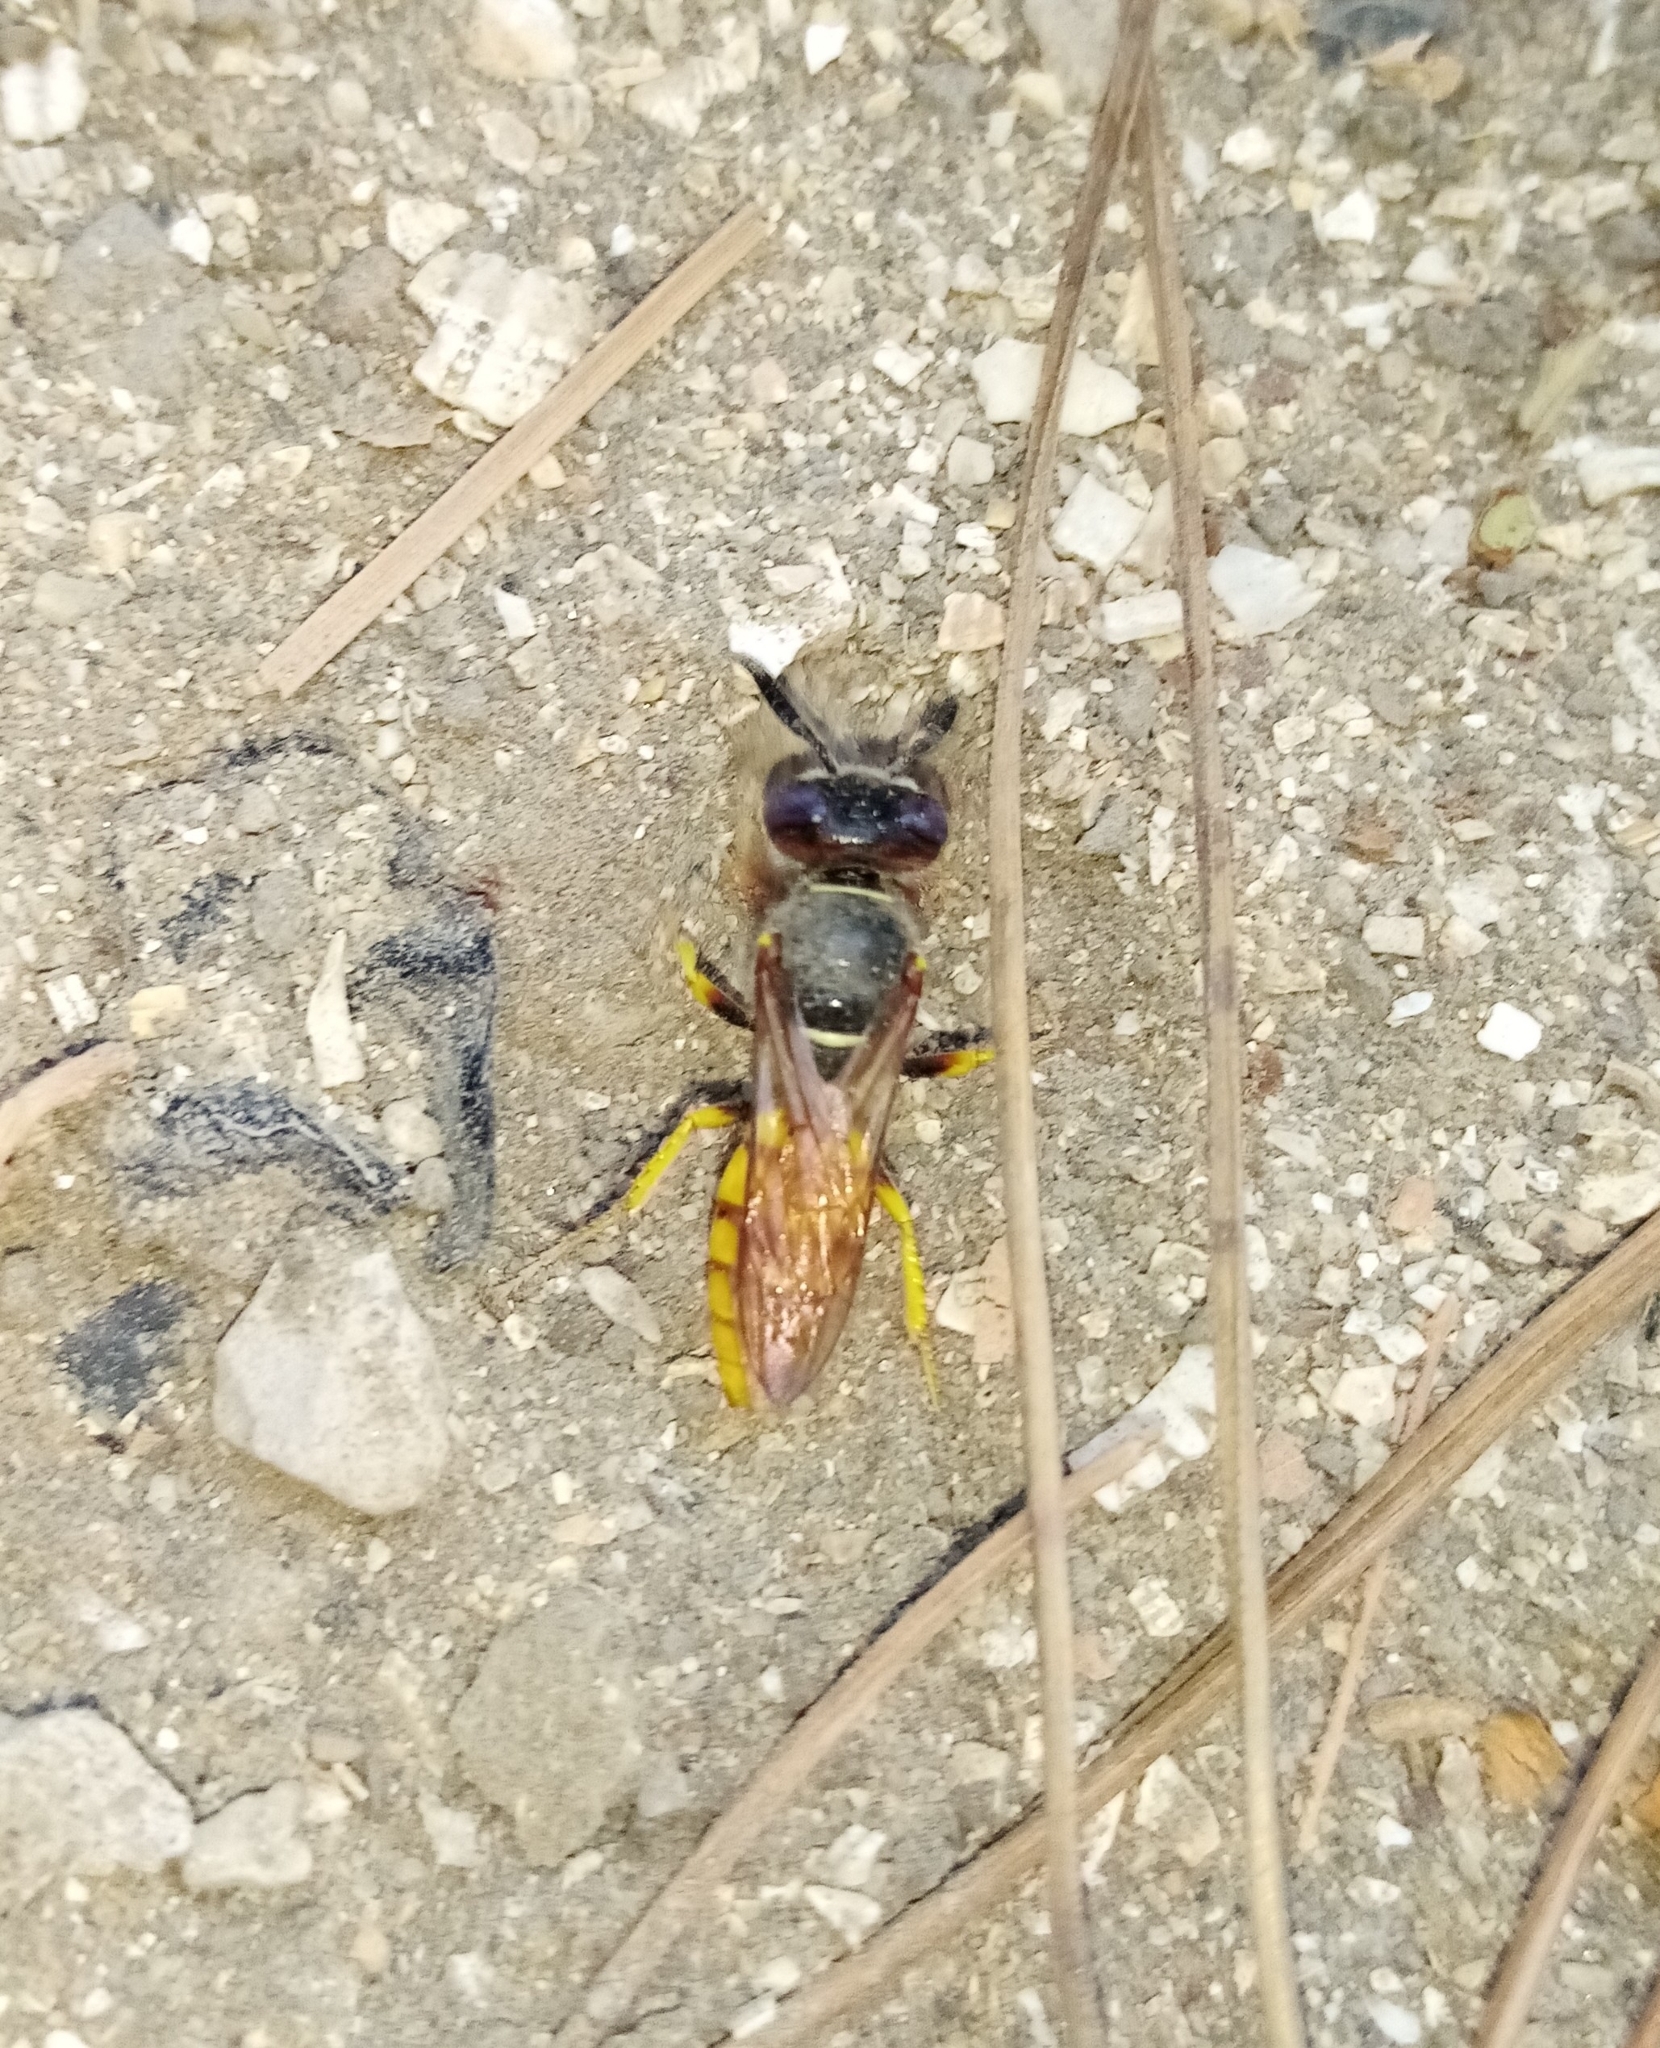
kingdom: Animalia
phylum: Arthropoda
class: Insecta
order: Hymenoptera
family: Crabronidae
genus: Philanthus
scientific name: Philanthus triangulum
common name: Bee wolf
